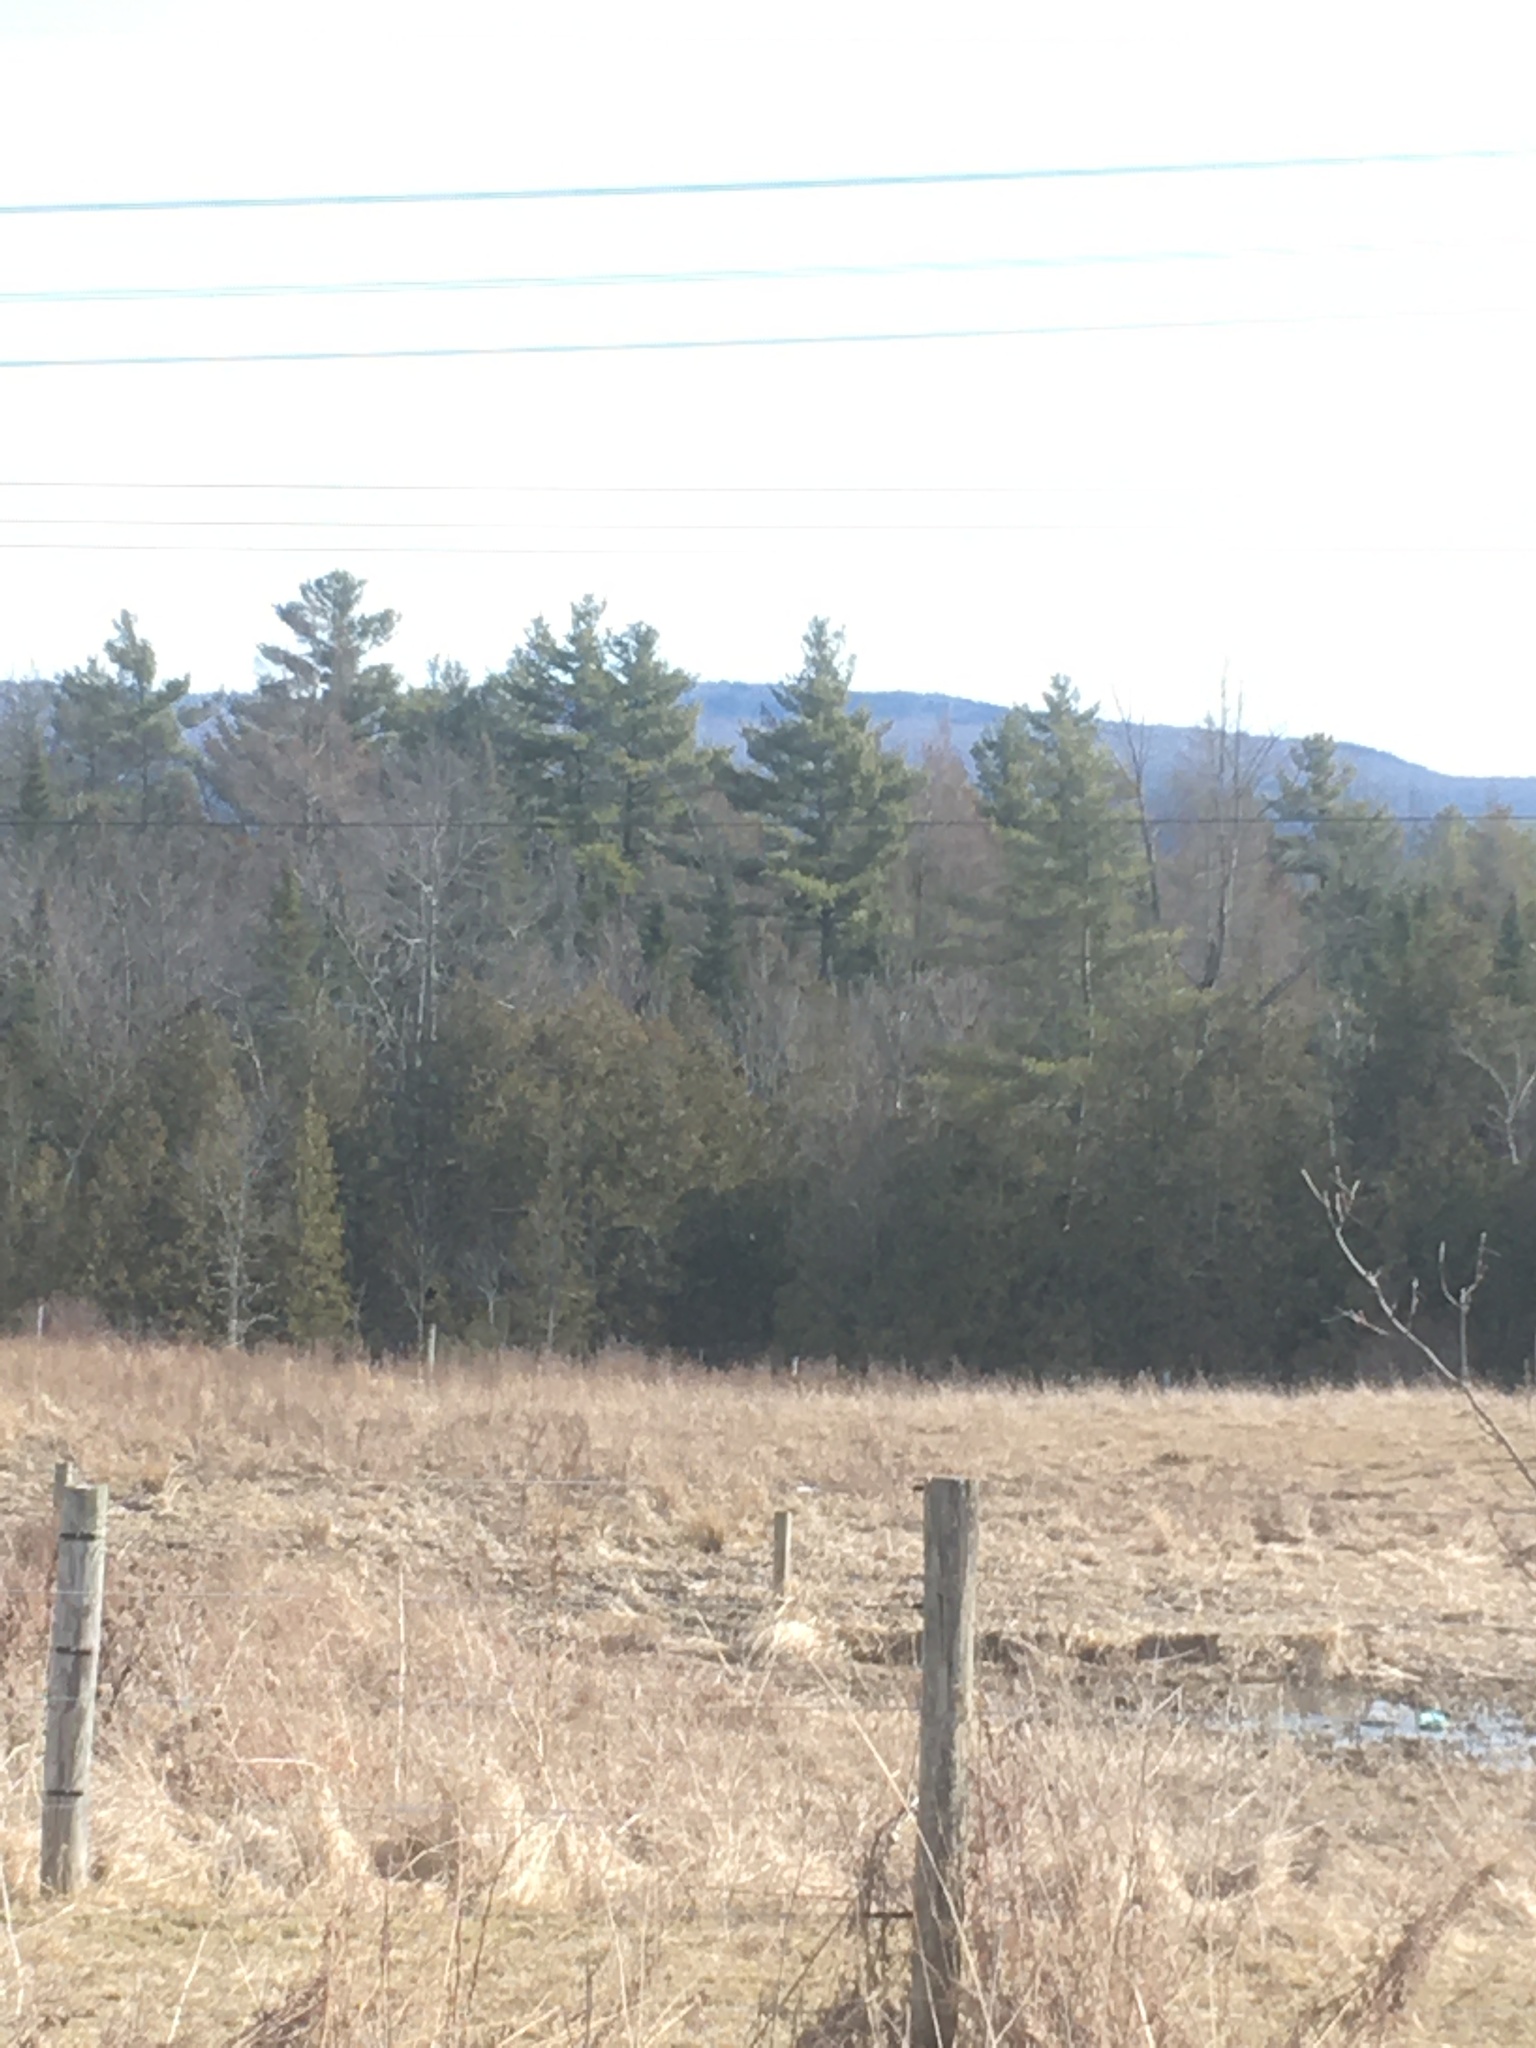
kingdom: Plantae
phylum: Tracheophyta
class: Pinopsida
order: Pinales
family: Pinaceae
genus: Pinus
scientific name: Pinus strobus
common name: Weymouth pine
